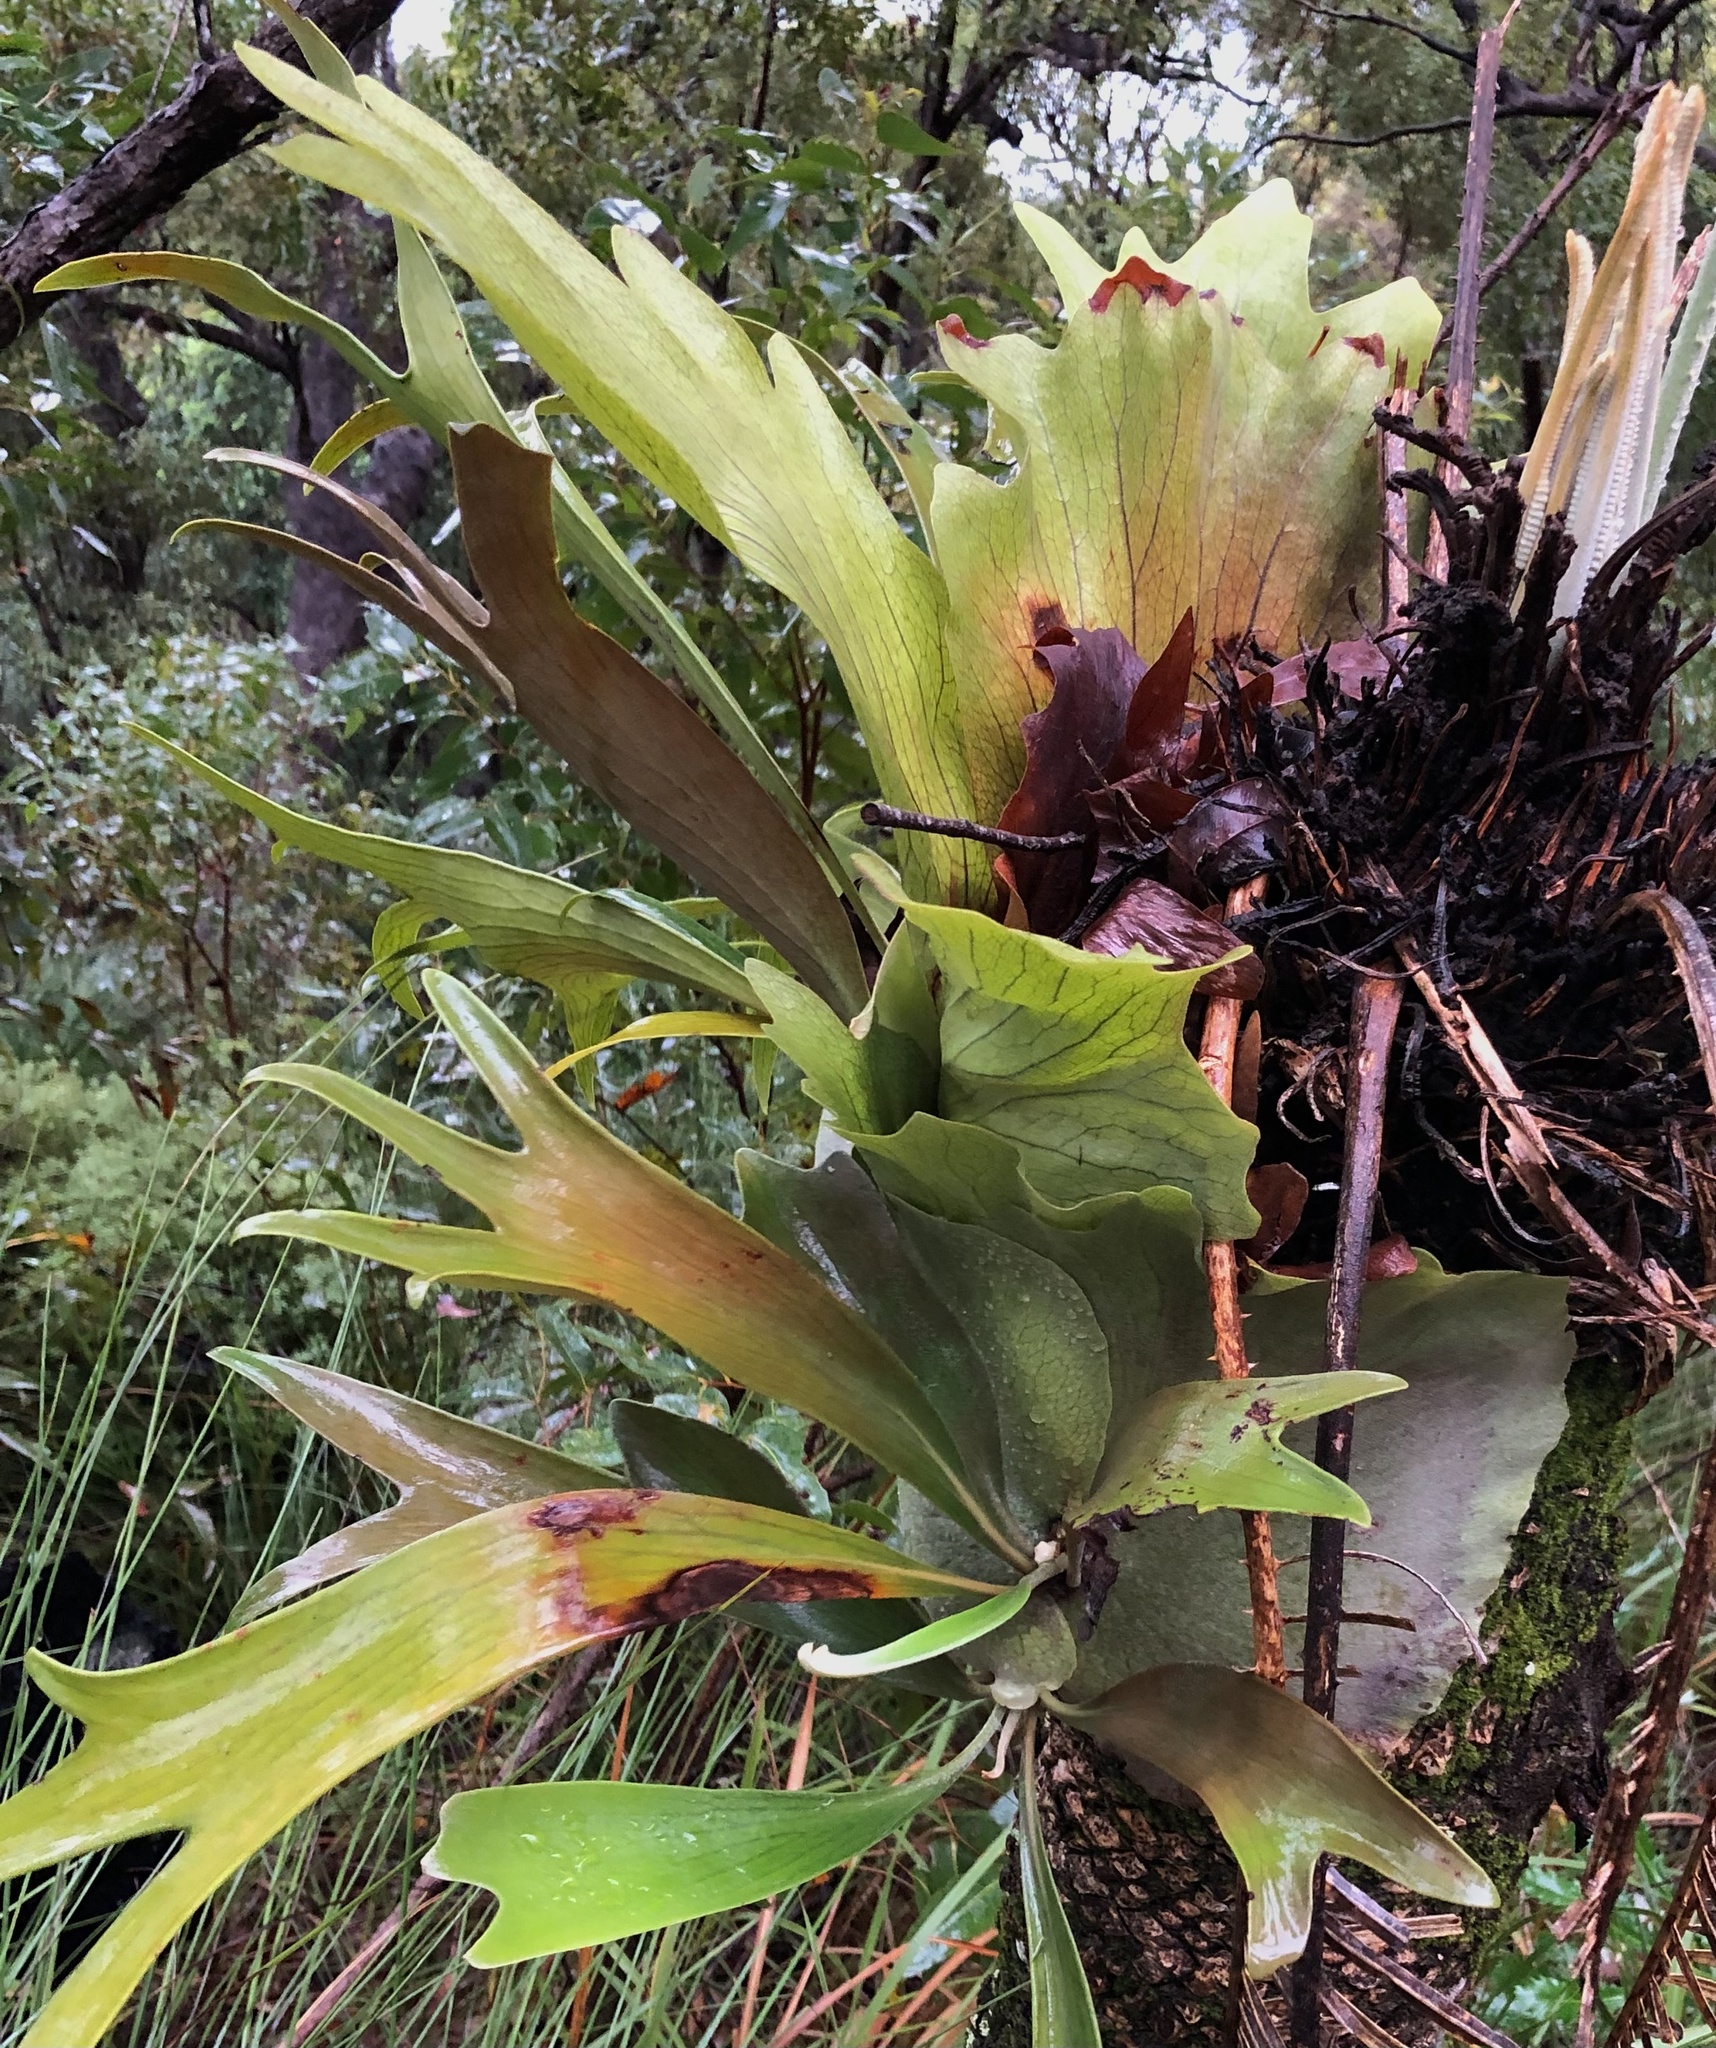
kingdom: Plantae
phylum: Tracheophyta
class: Polypodiopsida
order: Polypodiales
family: Polypodiaceae
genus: Platycerium
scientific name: Platycerium bifurcatum
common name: Elkhorn fern
